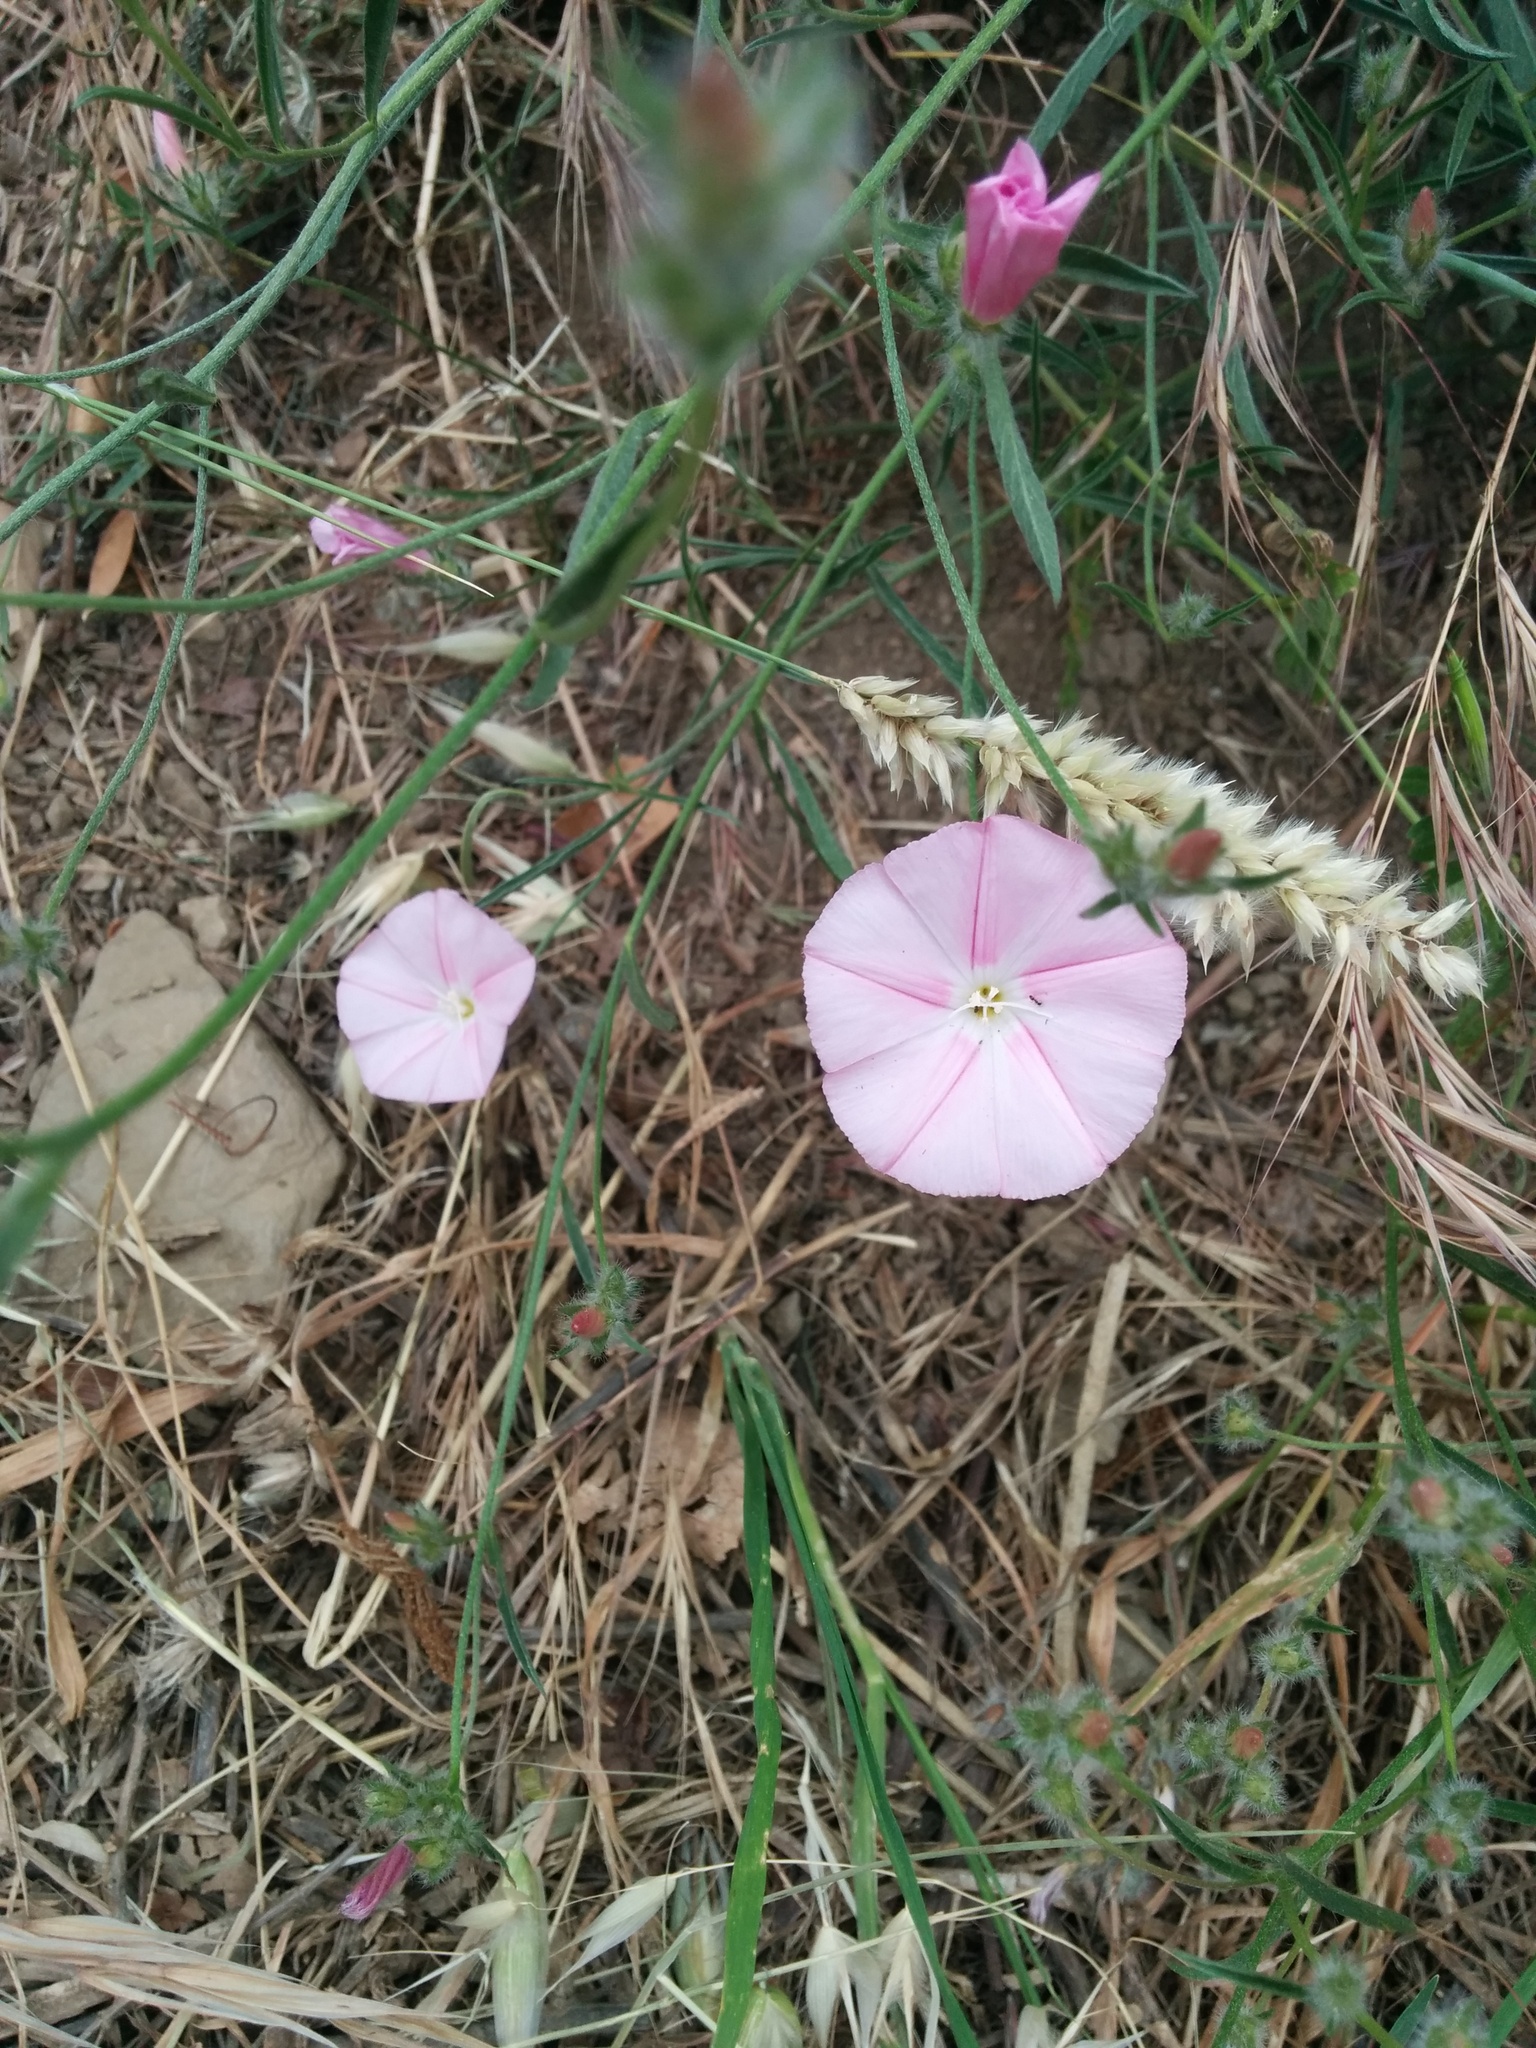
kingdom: Plantae
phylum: Tracheophyta
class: Magnoliopsida
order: Solanales
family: Convolvulaceae
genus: Convolvulus
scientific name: Convolvulus cantabrica
